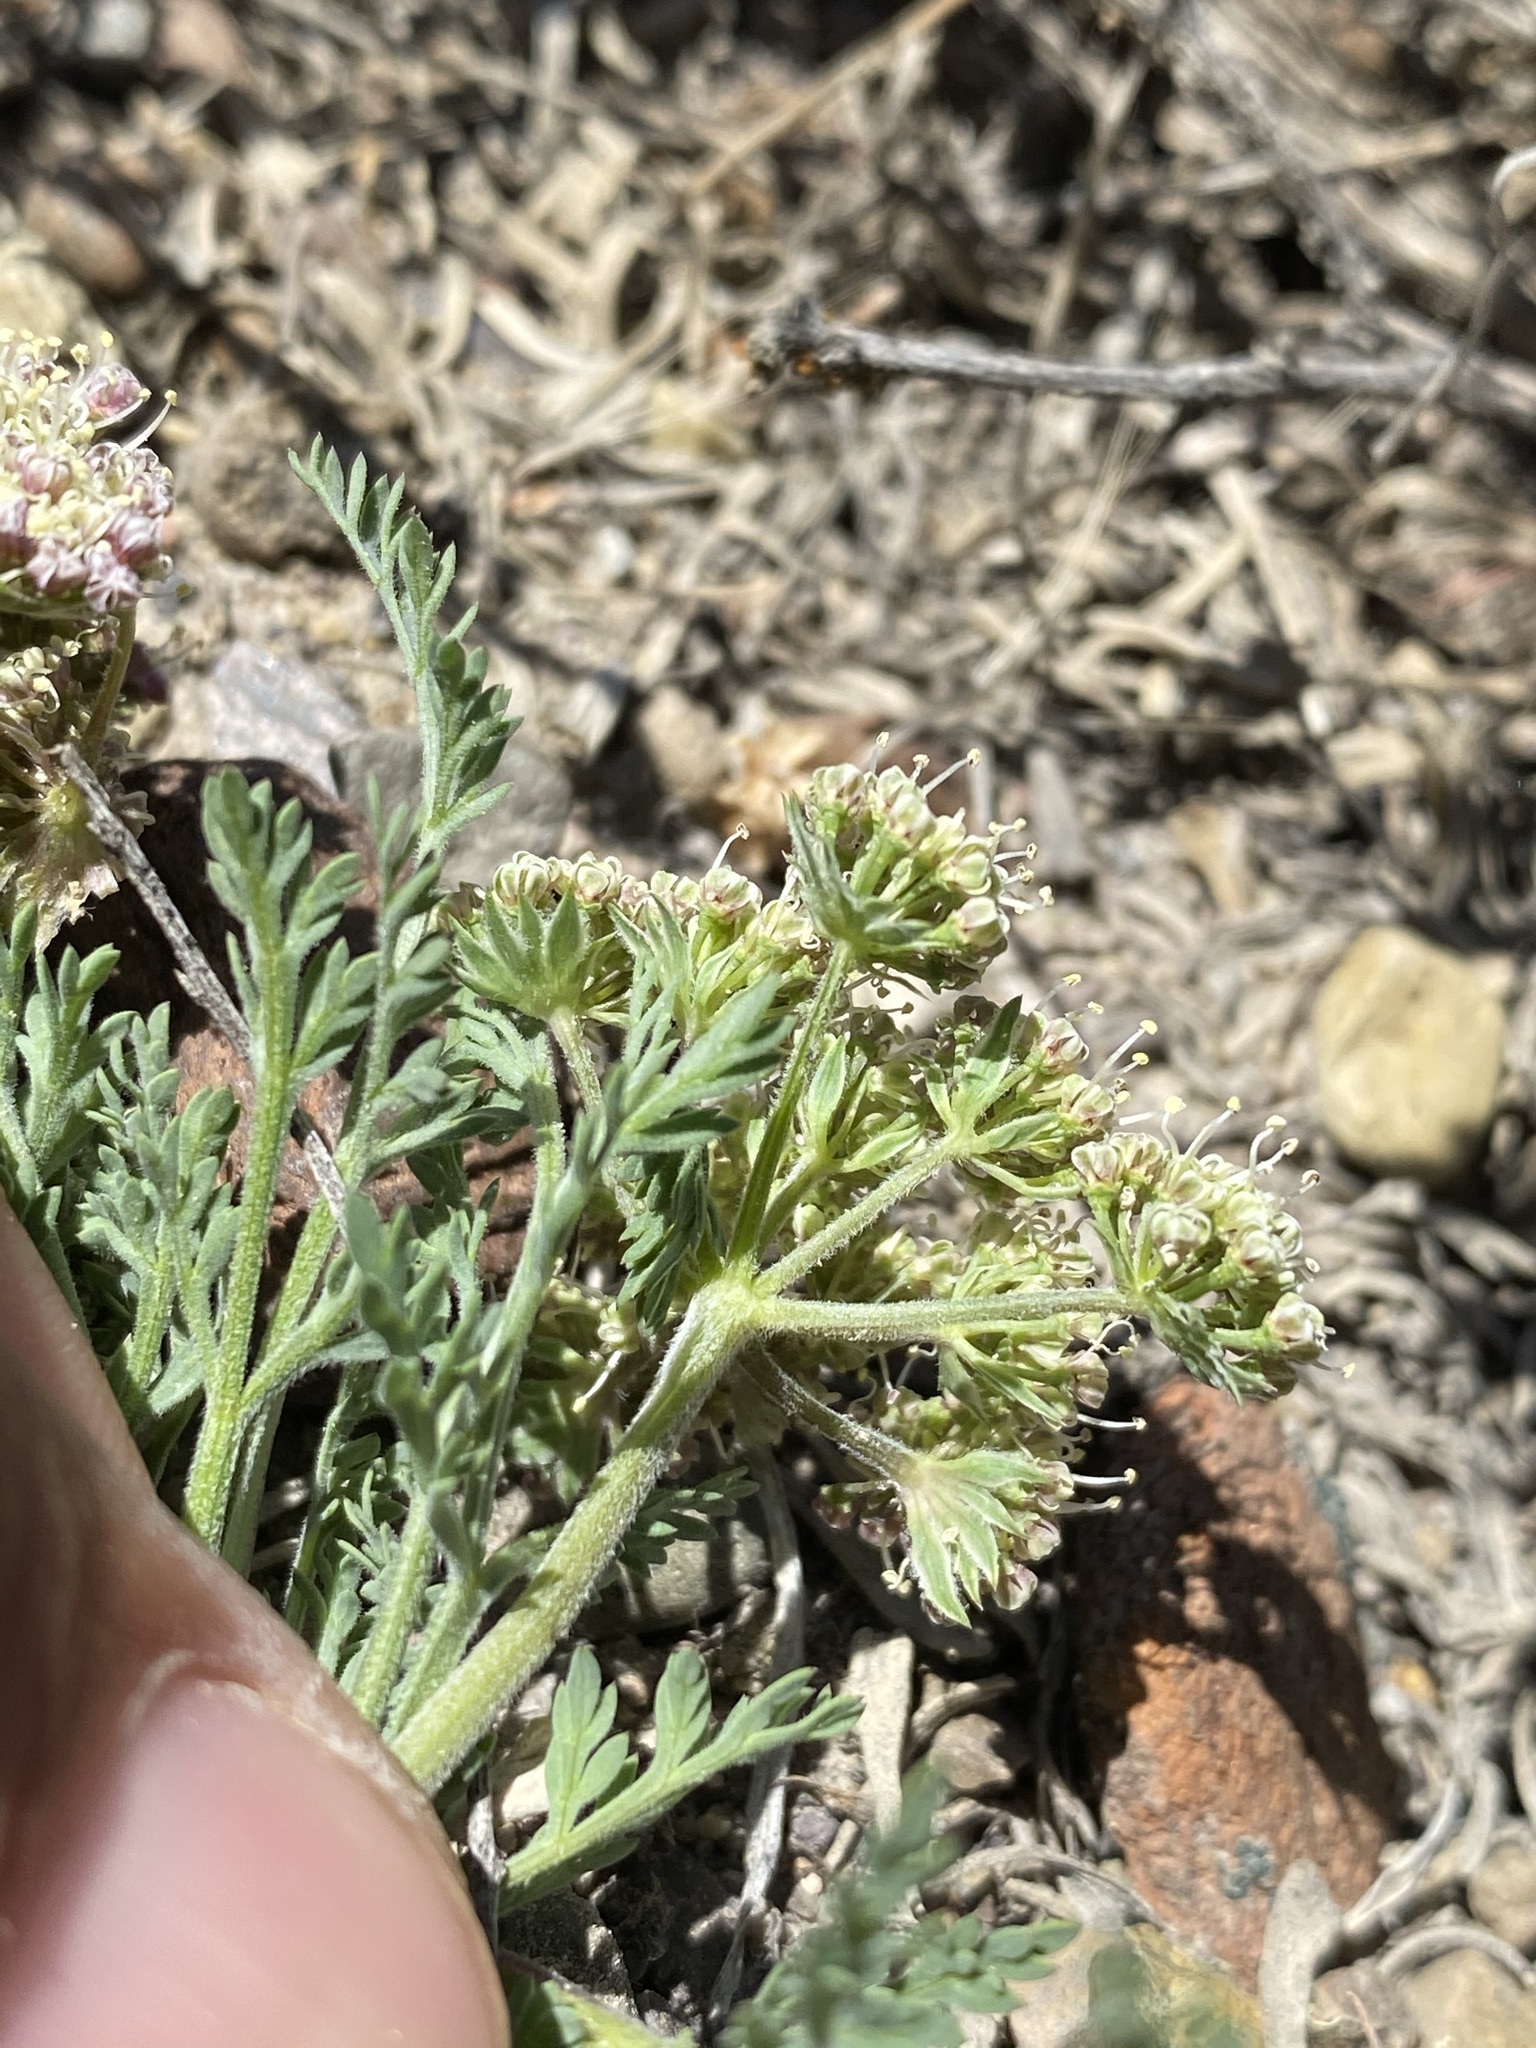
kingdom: Plantae
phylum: Tracheophyta
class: Magnoliopsida
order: Apiales
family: Apiaceae
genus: Lomatium
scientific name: Lomatium macrocarpum
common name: Big-seed biscuitroot
